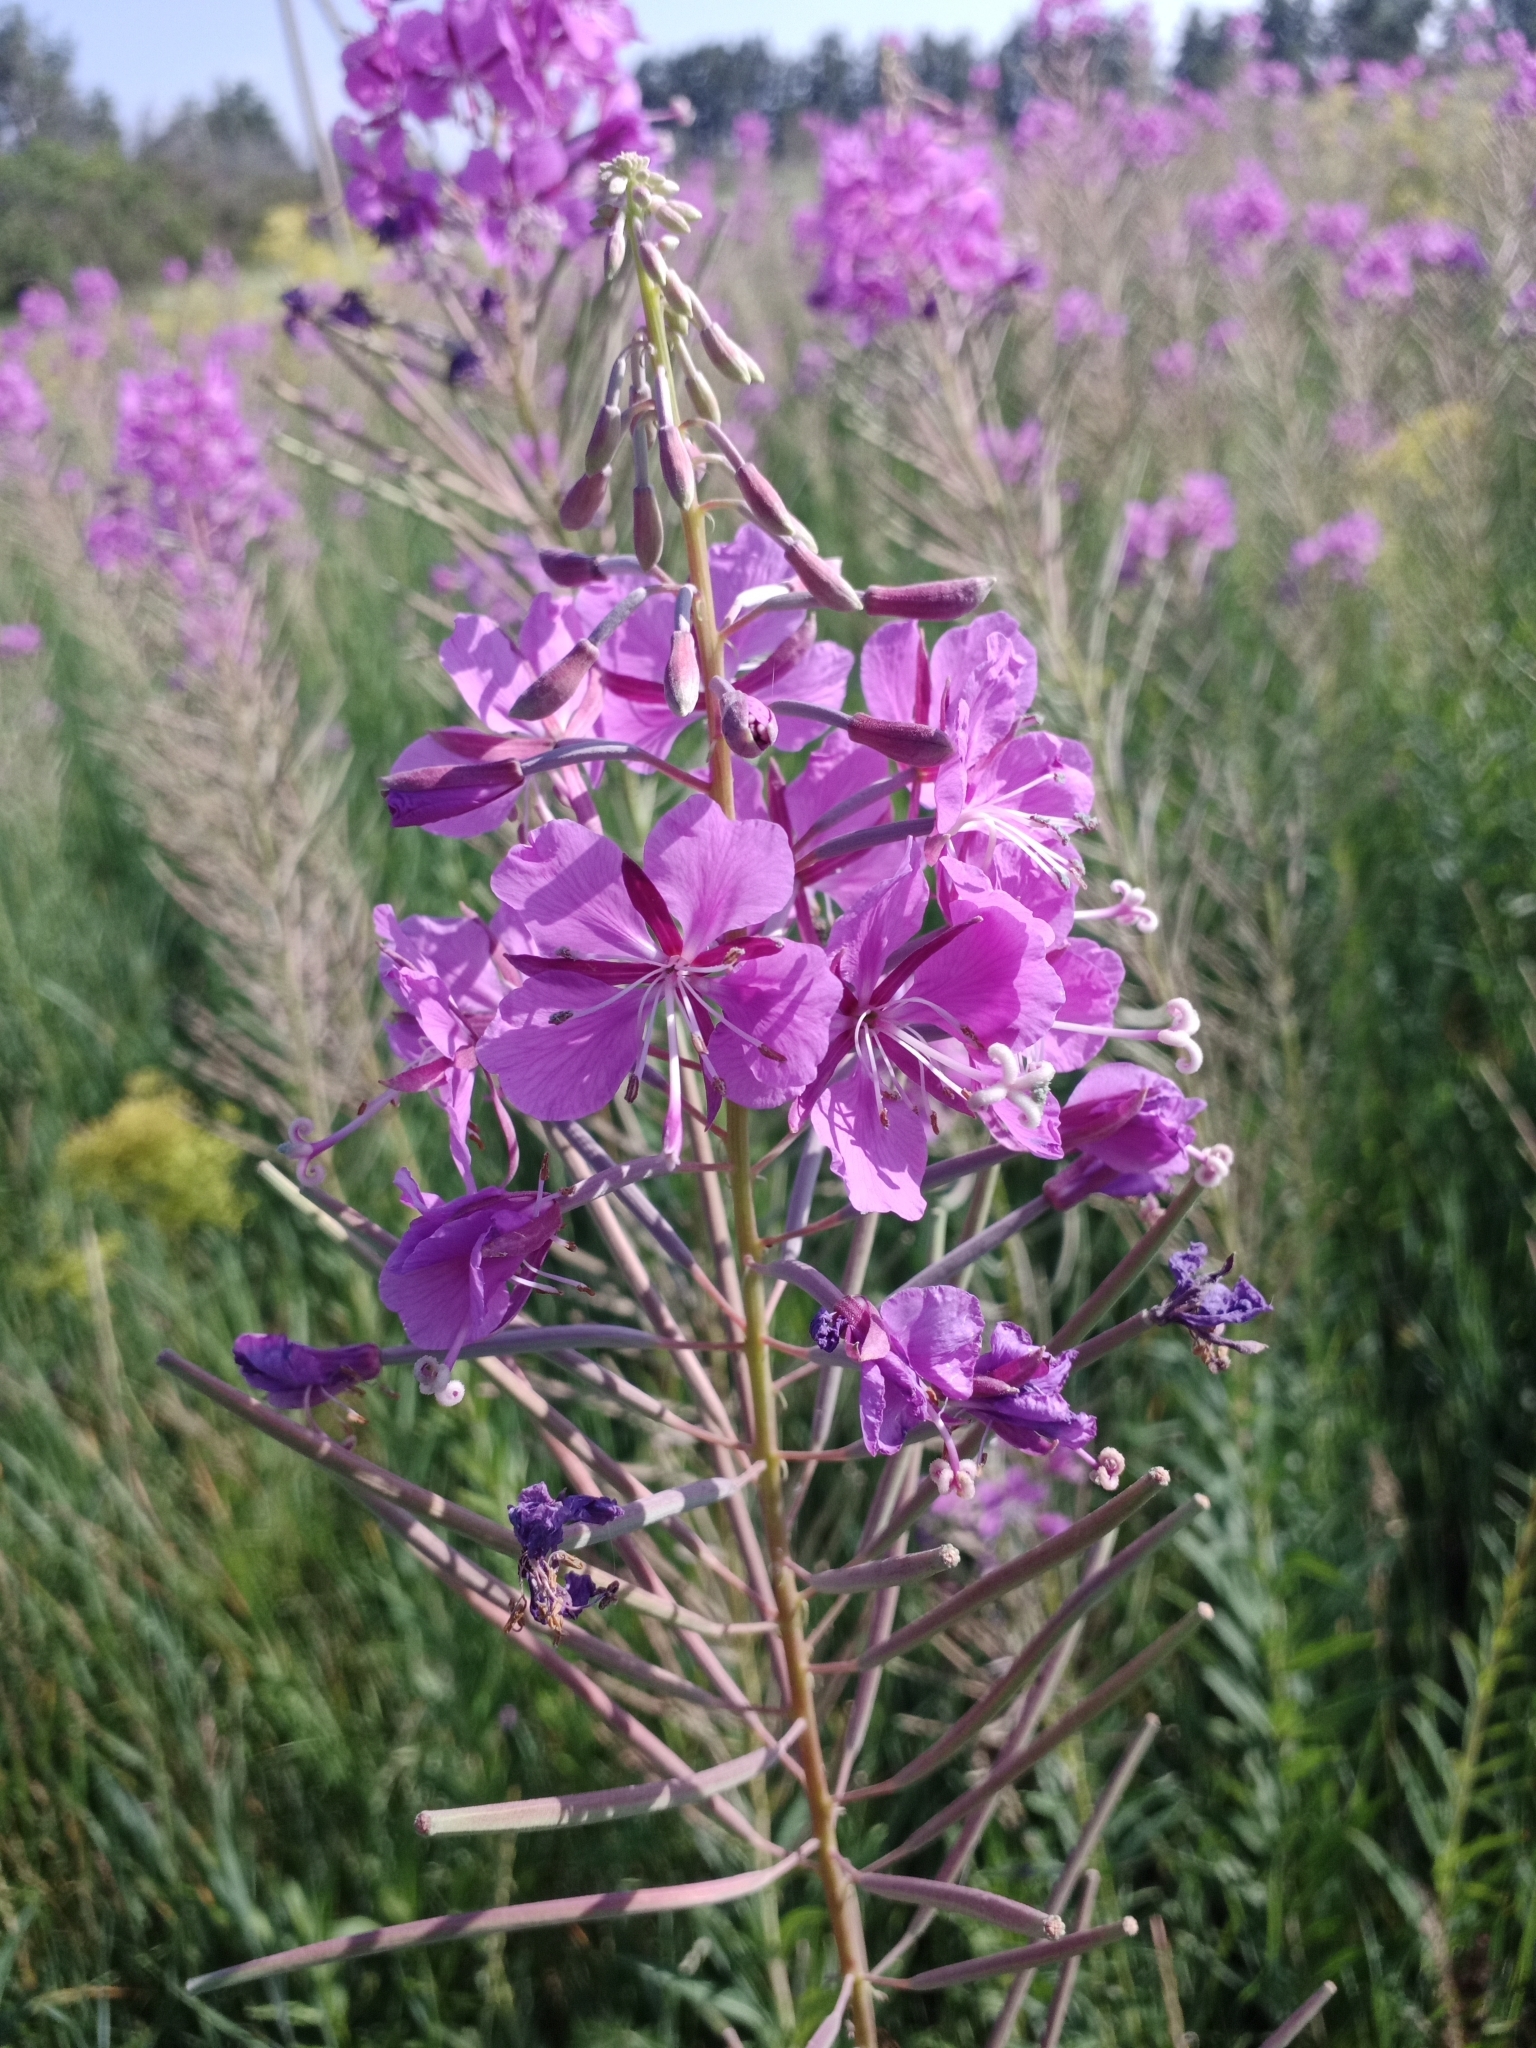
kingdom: Plantae
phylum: Tracheophyta
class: Magnoliopsida
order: Myrtales
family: Onagraceae
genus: Chamaenerion
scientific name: Chamaenerion angustifolium
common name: Fireweed
